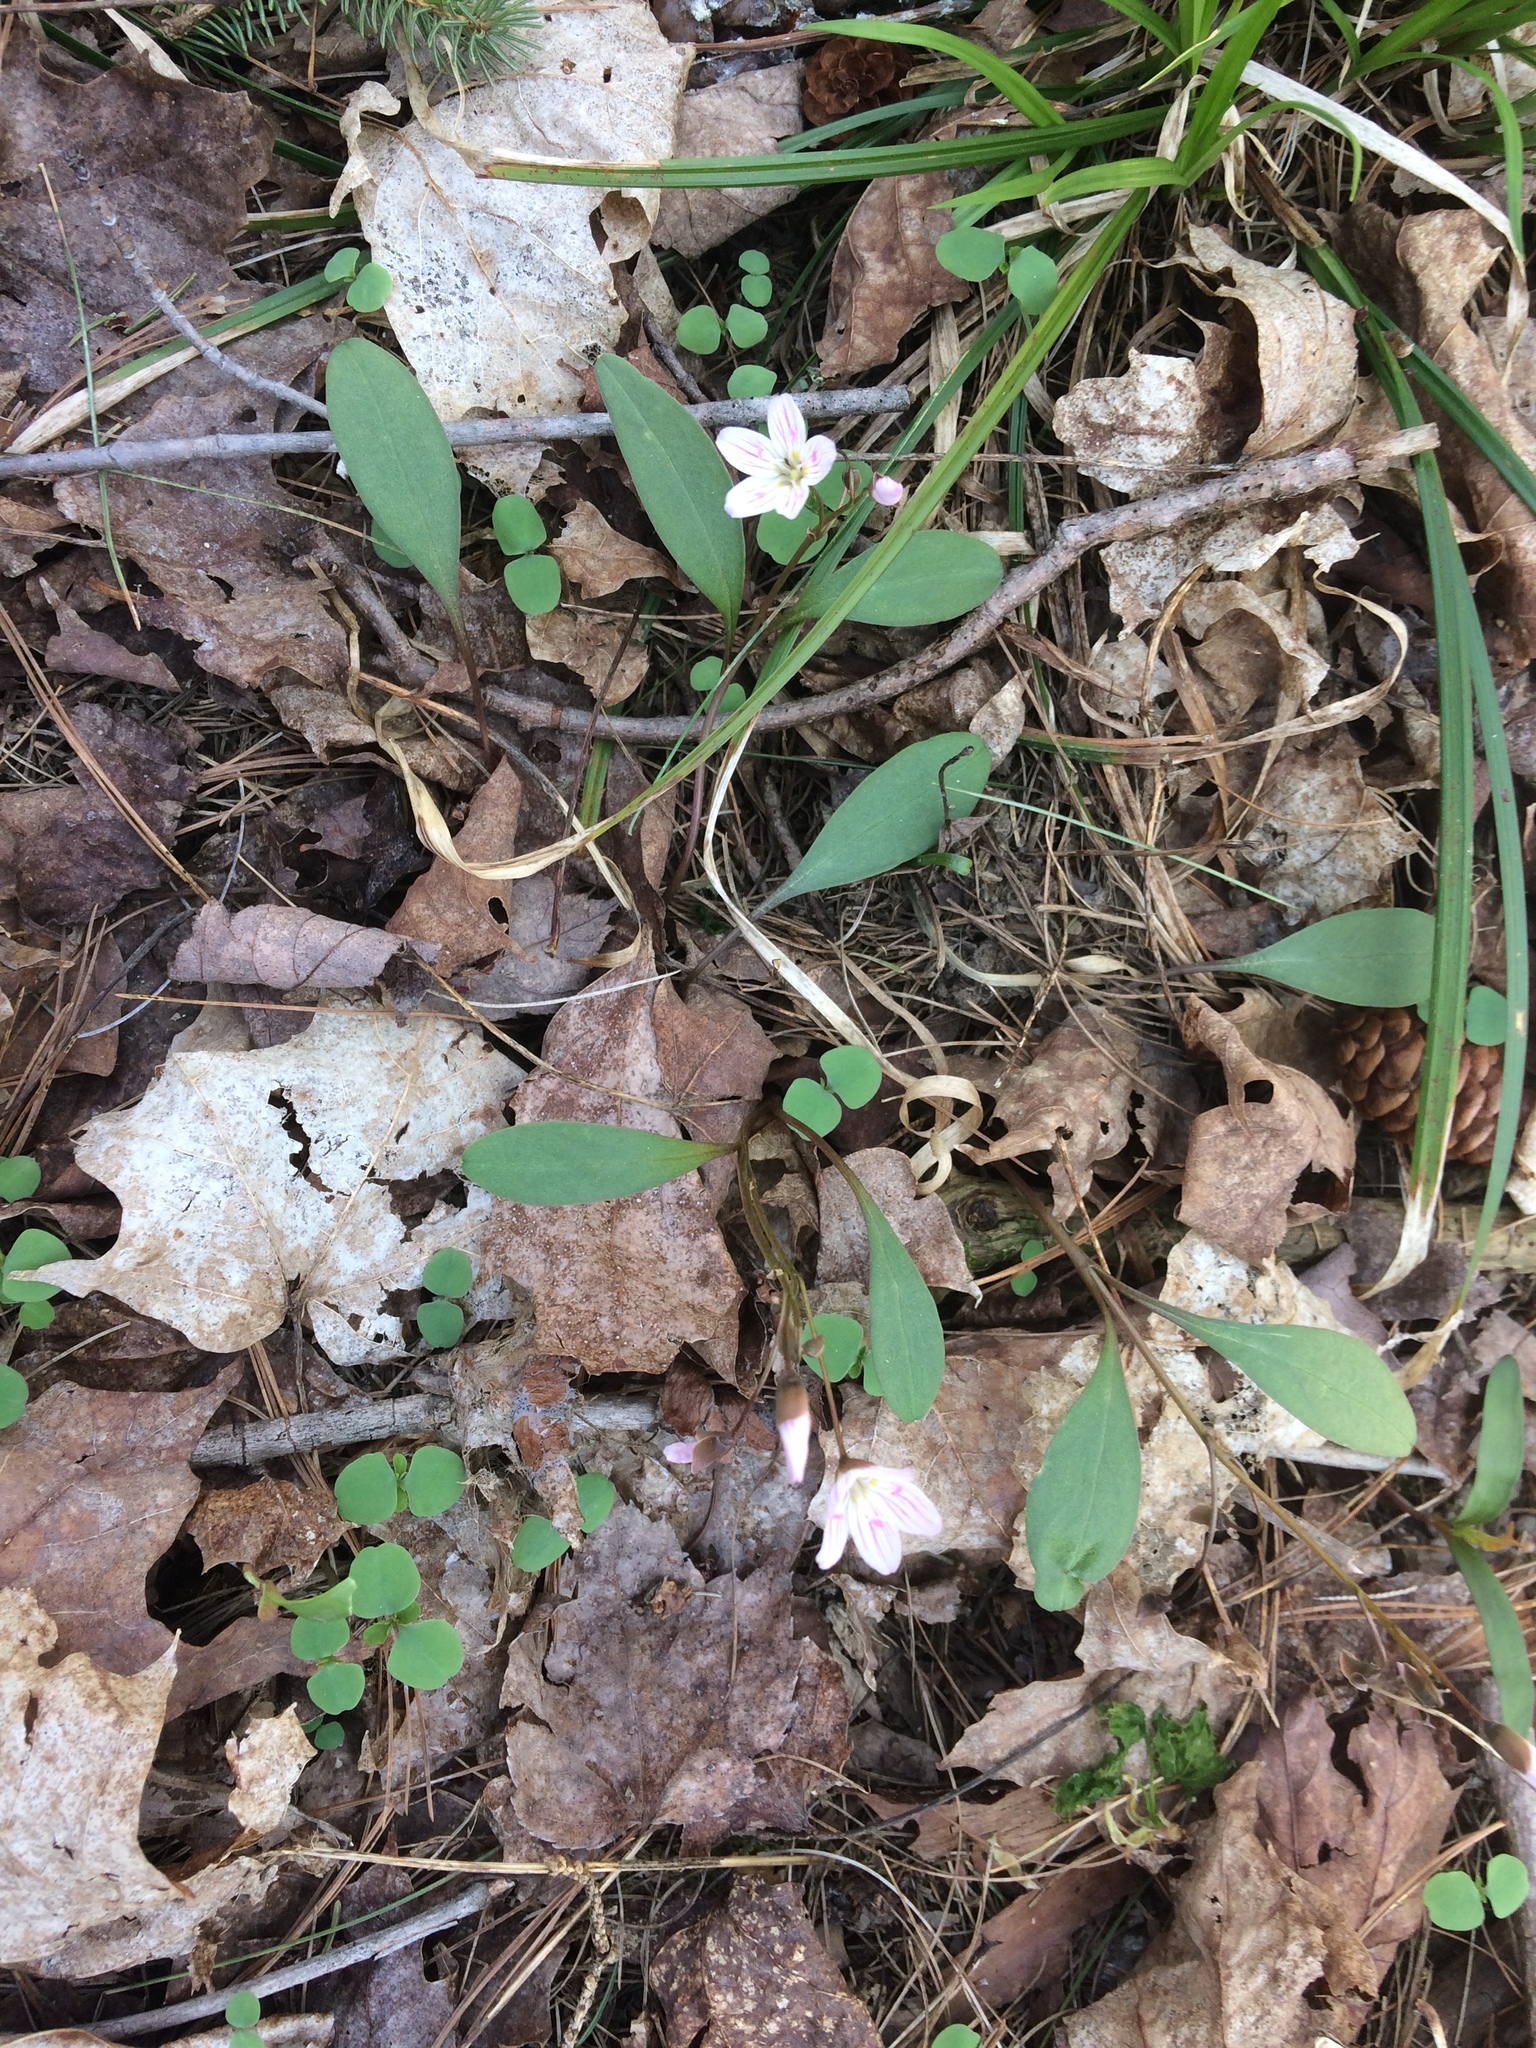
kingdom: Plantae
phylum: Tracheophyta
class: Magnoliopsida
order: Caryophyllales
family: Montiaceae
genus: Claytonia
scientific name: Claytonia caroliniana
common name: Carolina spring beauty
